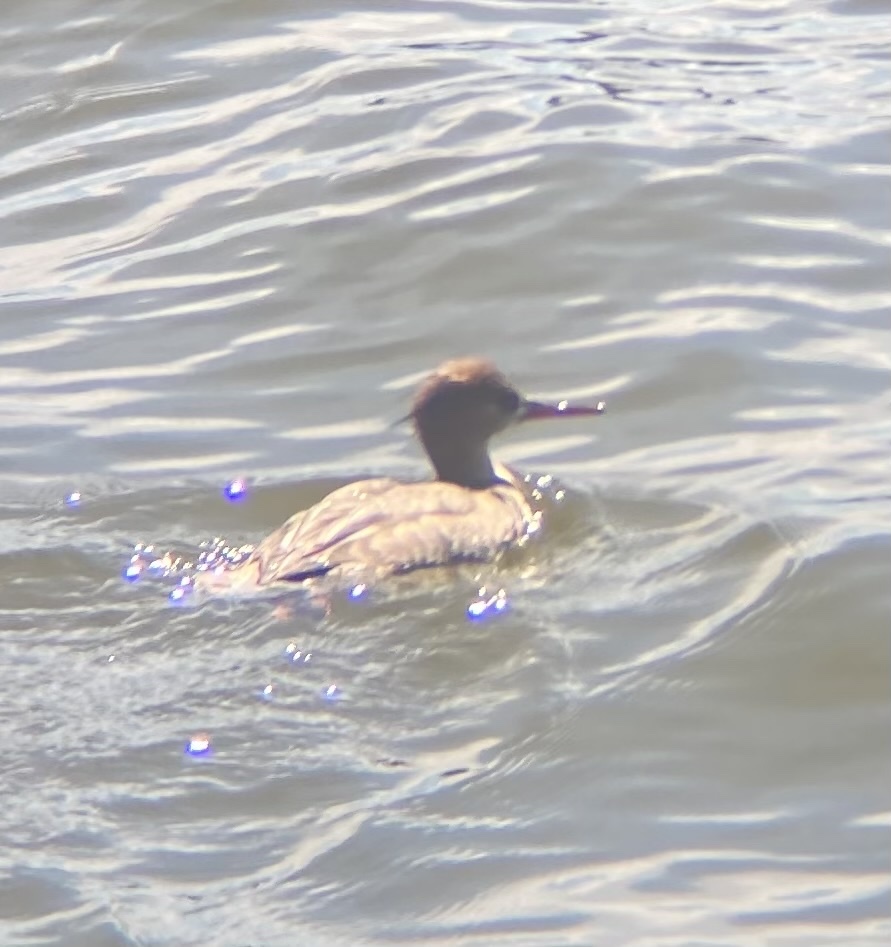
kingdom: Animalia
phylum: Chordata
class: Aves
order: Anseriformes
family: Anatidae
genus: Mergus
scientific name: Mergus serrator
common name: Red-breasted merganser
